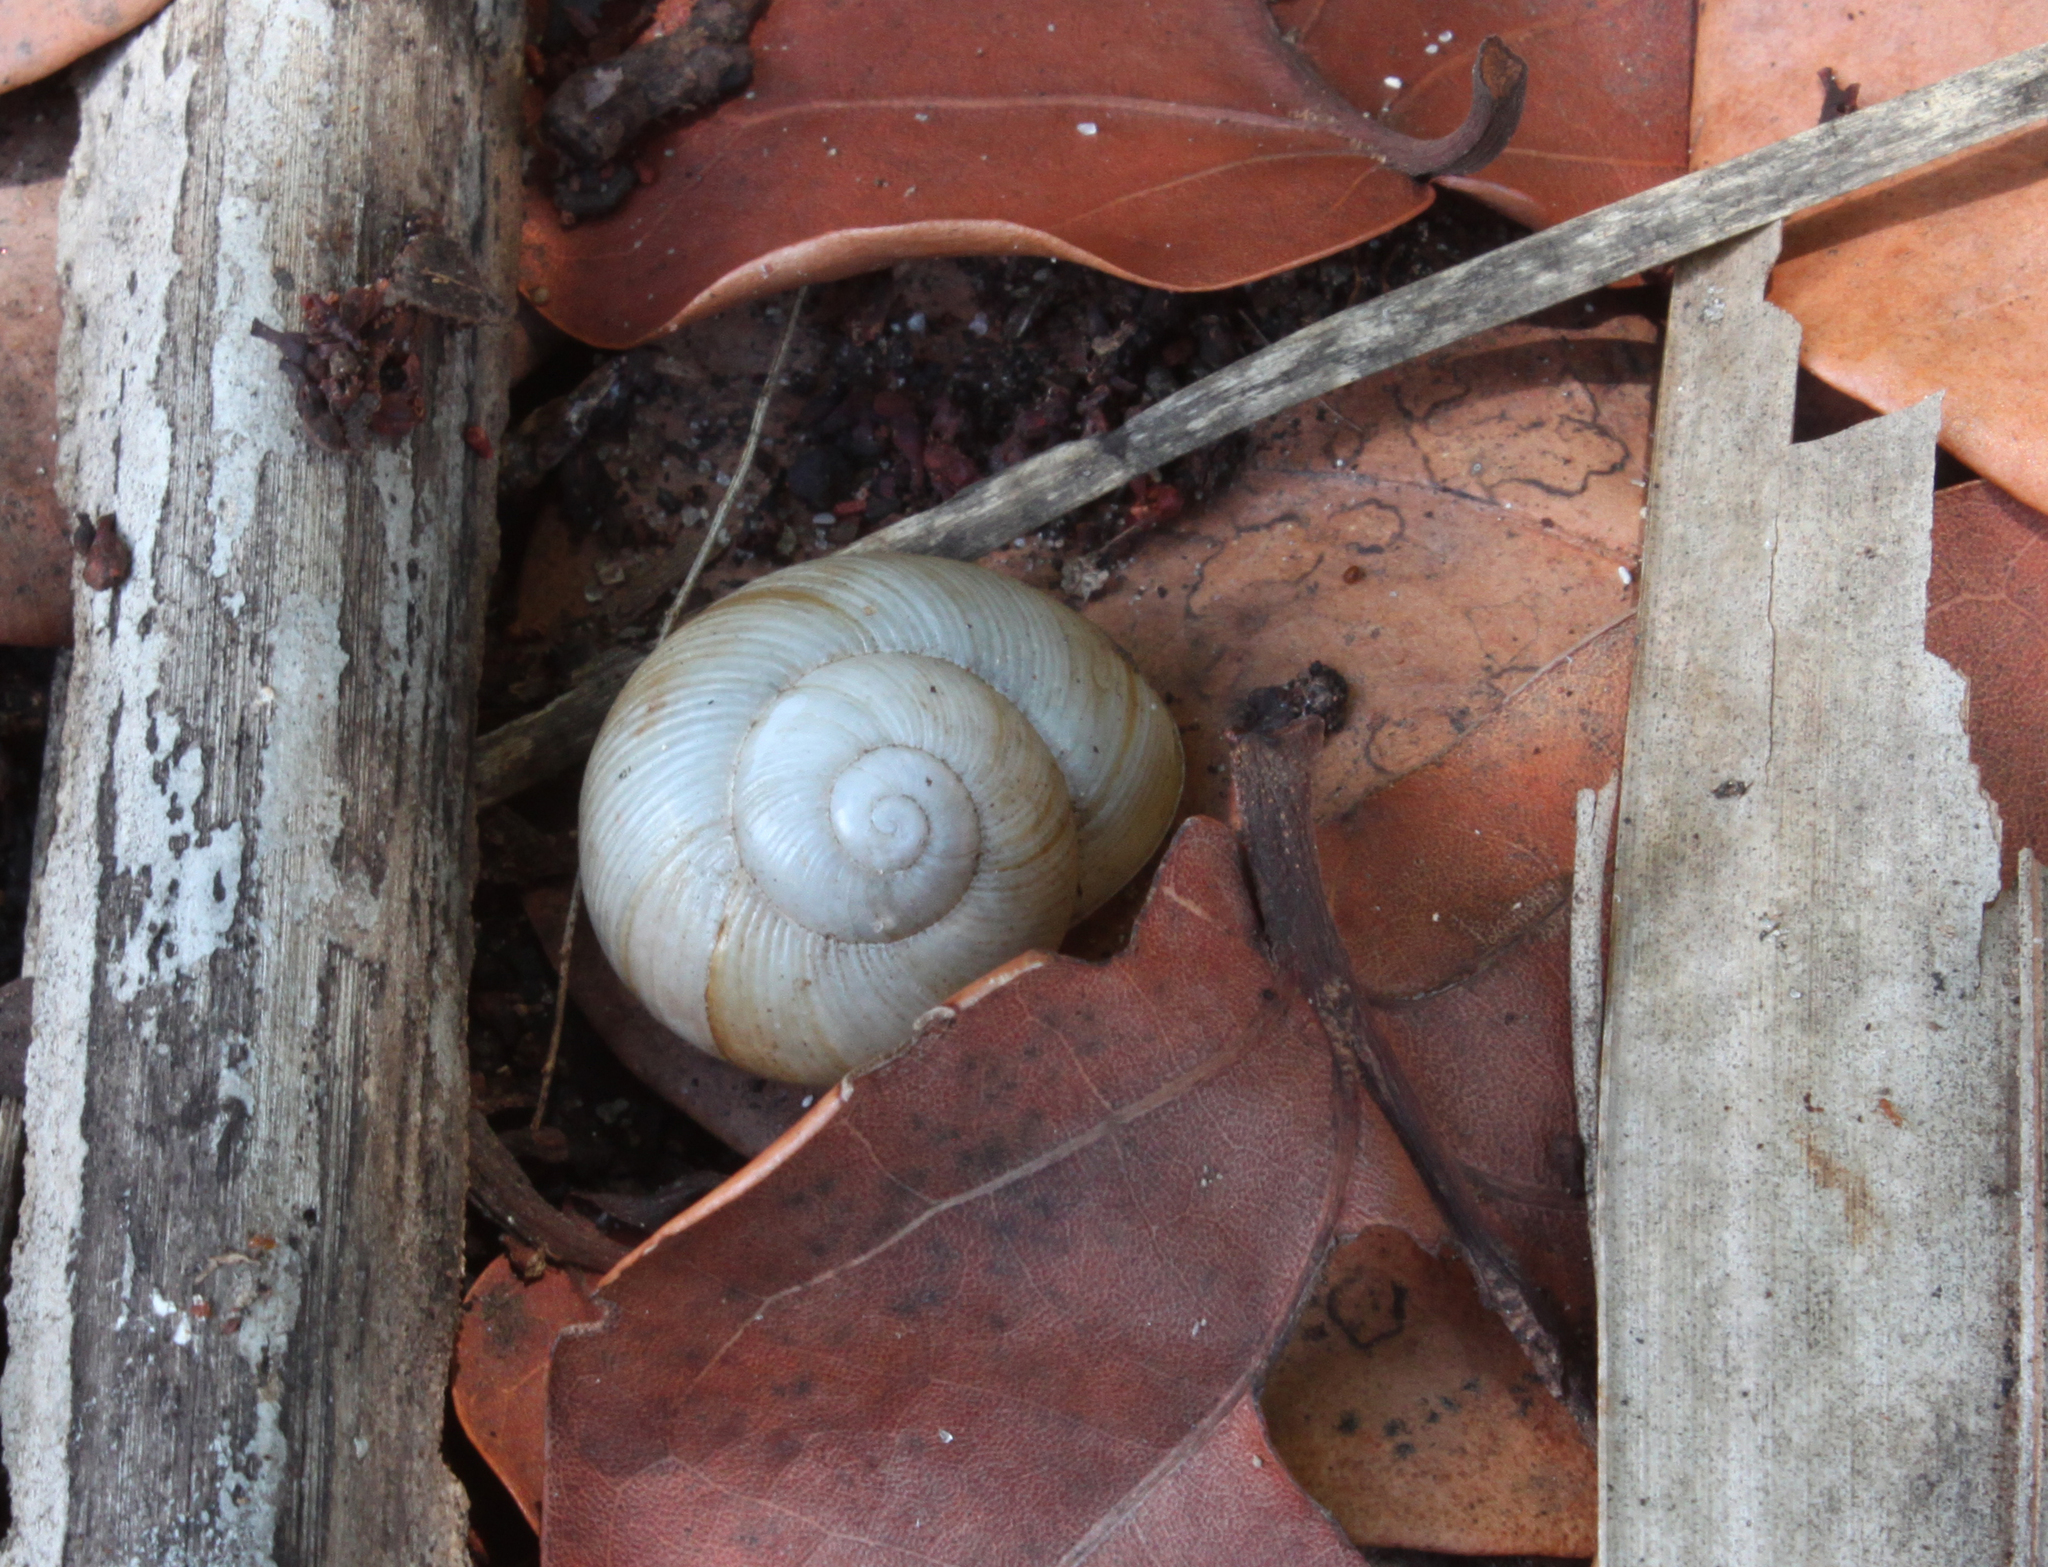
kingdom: Animalia
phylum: Mollusca
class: Gastropoda
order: Stylommatophora
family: Zachrysiidae
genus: Zachrysia
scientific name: Zachrysia provisoria
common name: Garden zachrysia
